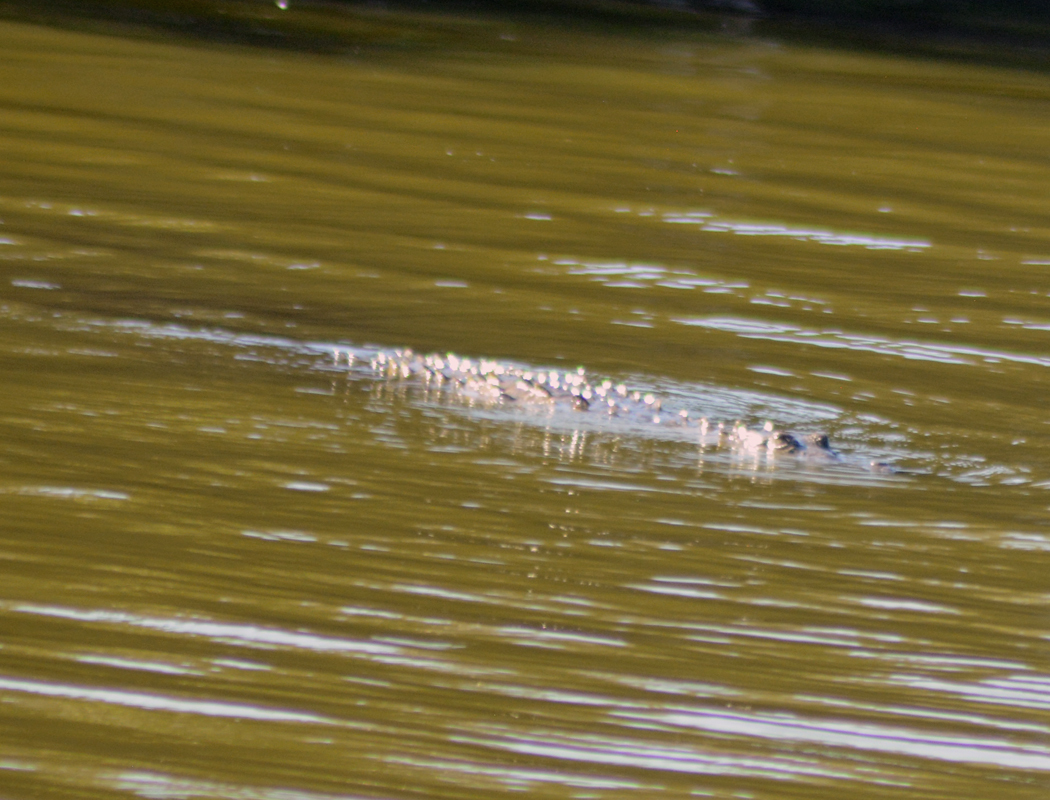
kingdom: Animalia
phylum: Chordata
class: Crocodylia
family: Crocodylidae
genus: Crocodylus
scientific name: Crocodylus acutus
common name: American crocodile
